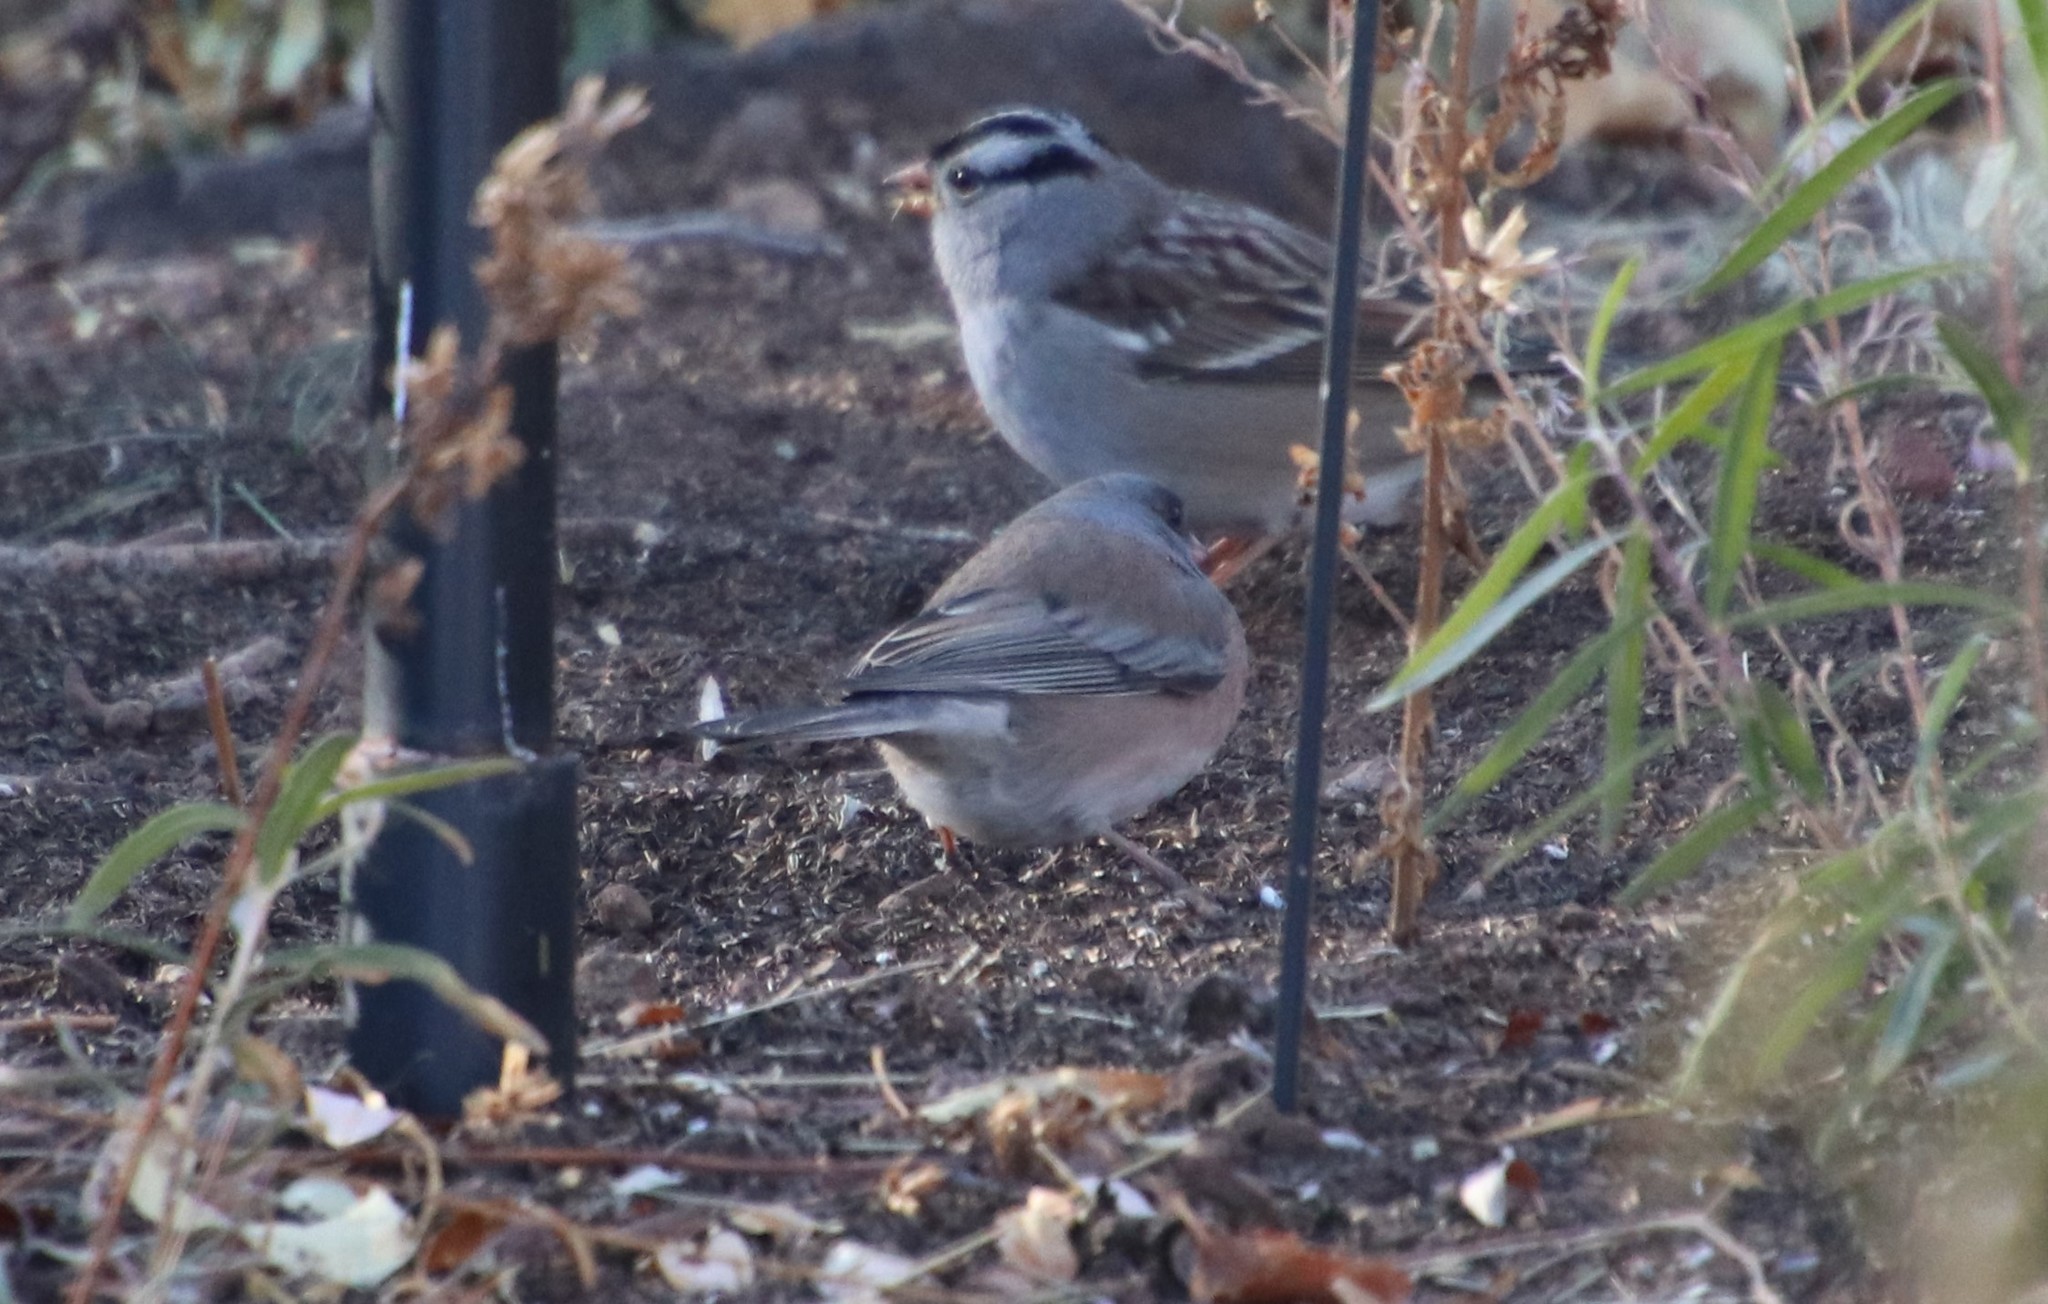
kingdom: Animalia
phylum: Chordata
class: Aves
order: Passeriformes
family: Passerellidae
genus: Junco
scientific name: Junco hyemalis
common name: Dark-eyed junco
